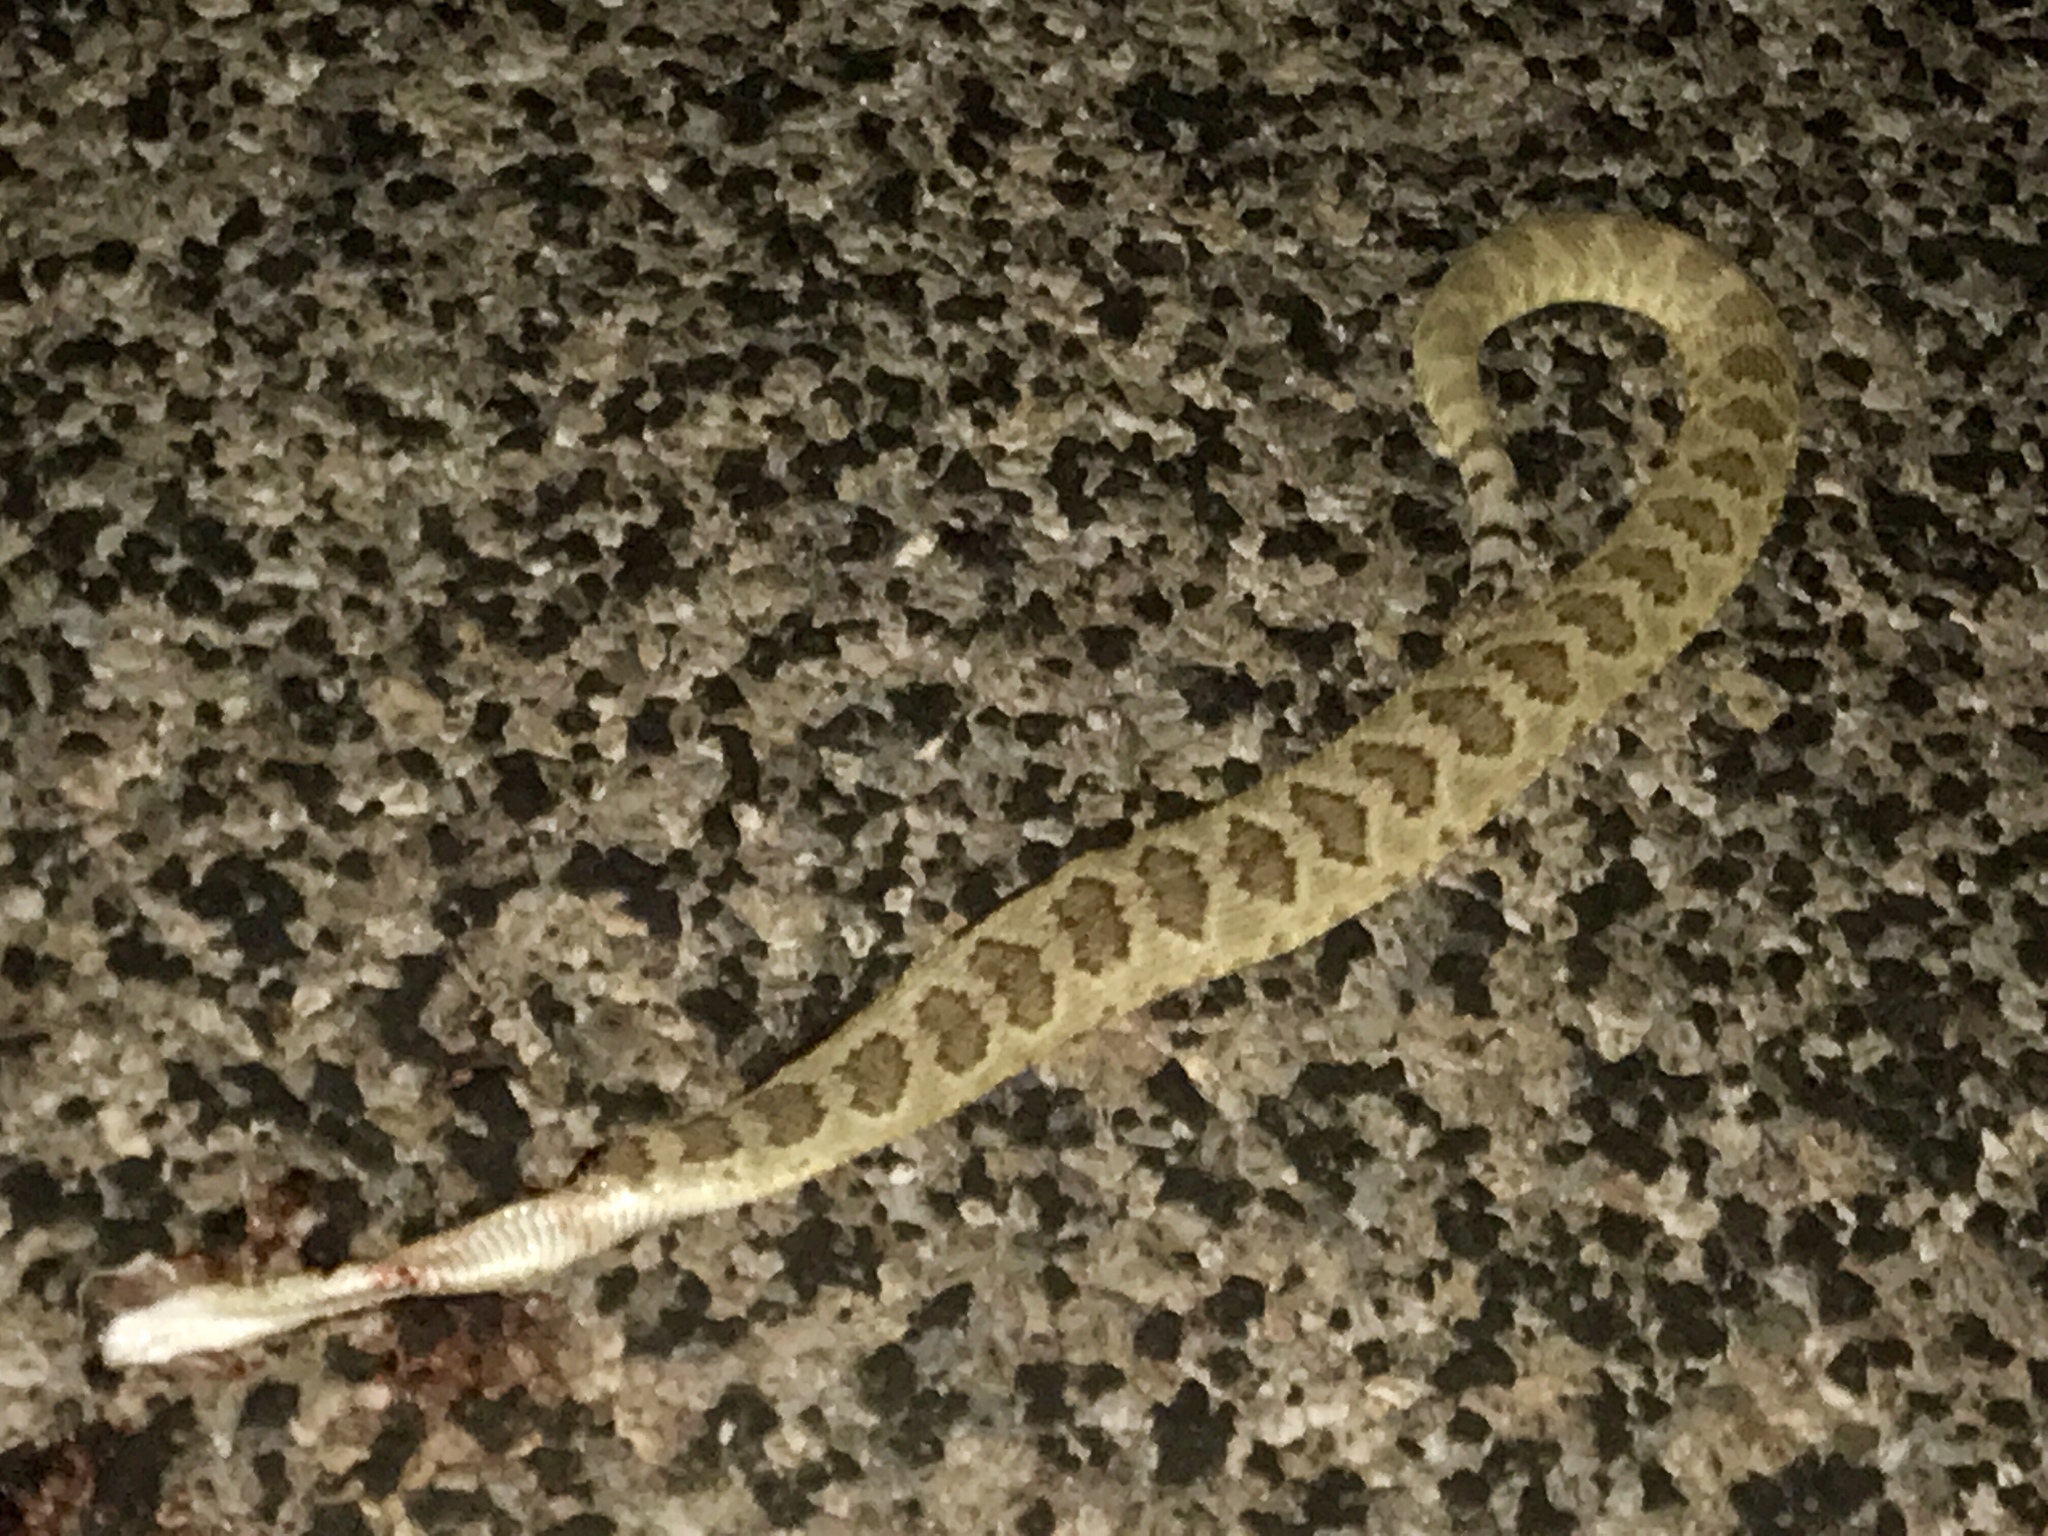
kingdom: Animalia
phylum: Chordata
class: Squamata
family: Viperidae
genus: Crotalus
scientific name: Crotalus scutulatus
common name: Scutulatus
